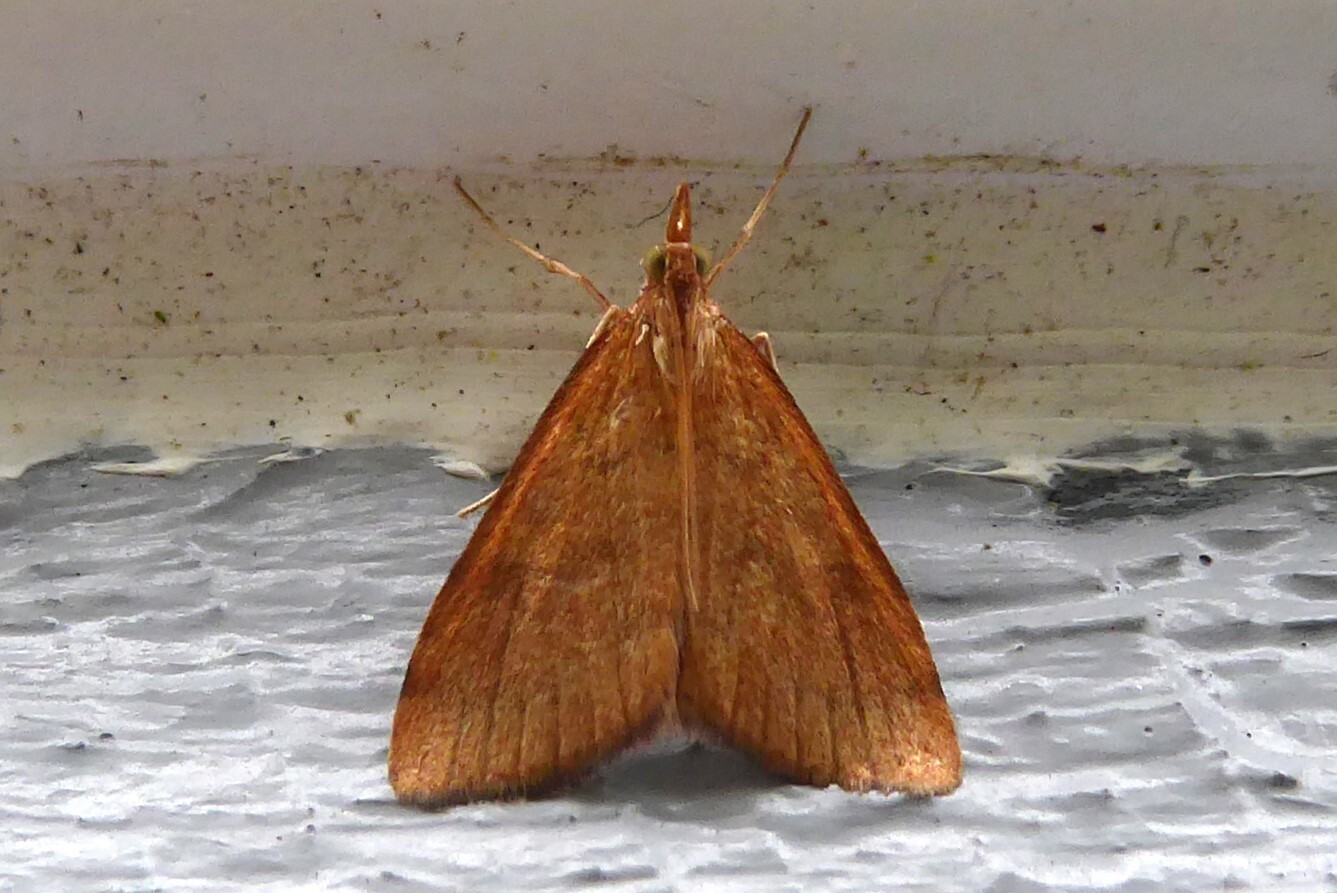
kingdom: Animalia
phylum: Arthropoda
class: Insecta
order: Lepidoptera
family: Crambidae
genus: Udea
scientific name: Udea Mnesictena flavidalis
